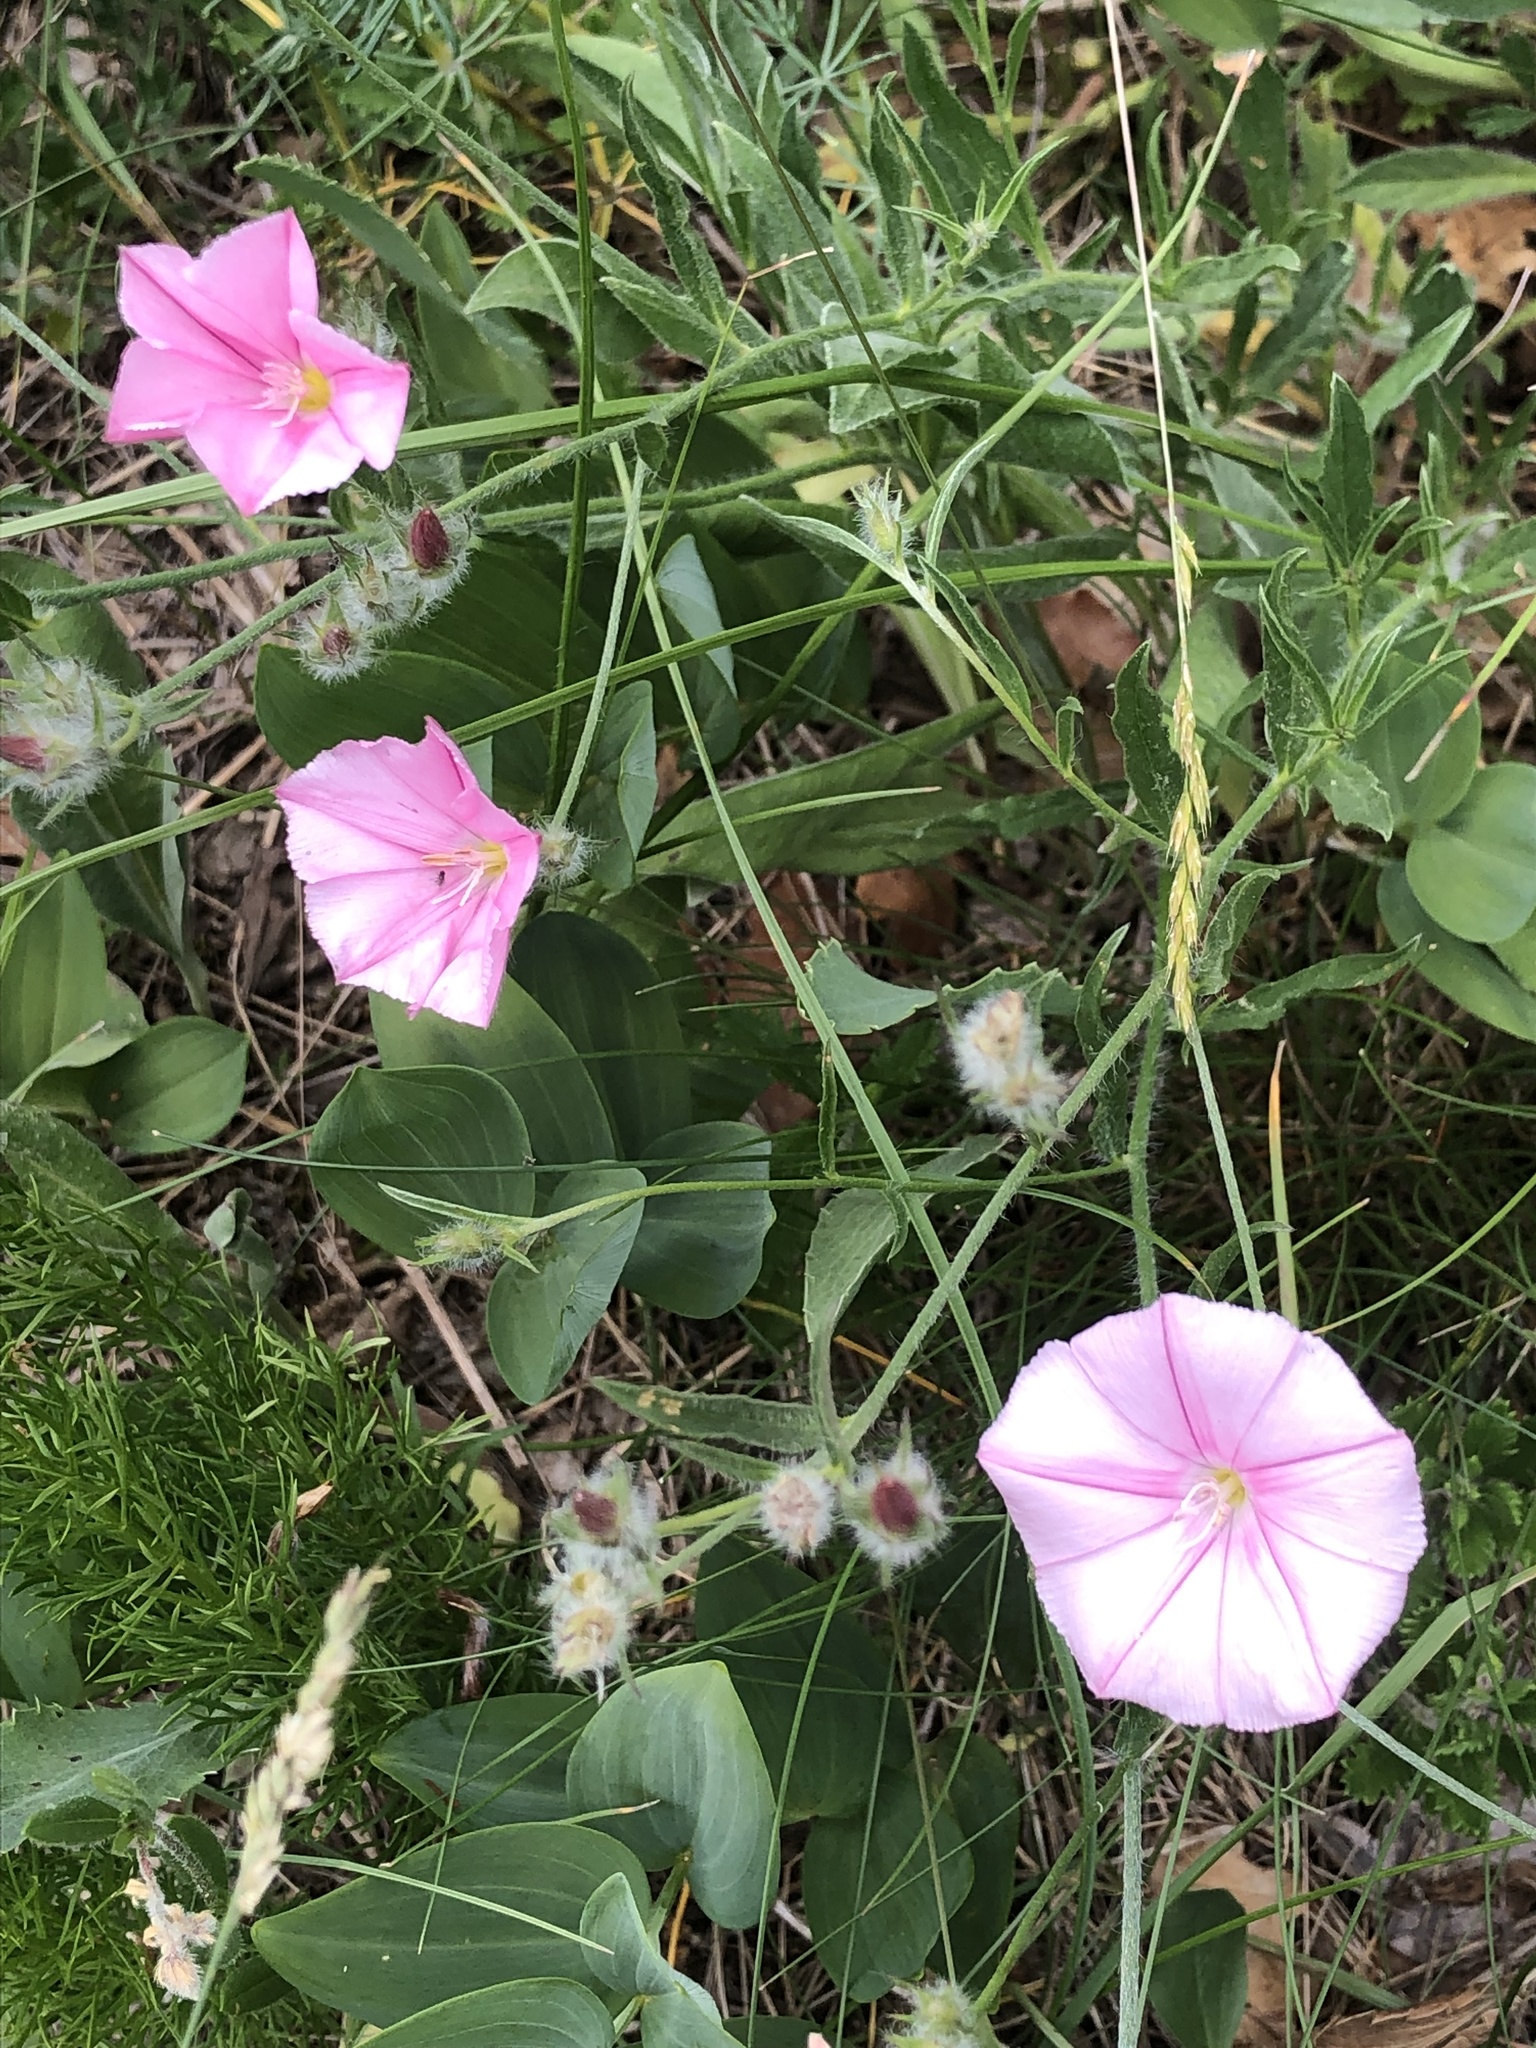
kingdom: Plantae
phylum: Tracheophyta
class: Magnoliopsida
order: Solanales
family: Convolvulaceae
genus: Convolvulus
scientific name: Convolvulus cantabrica
